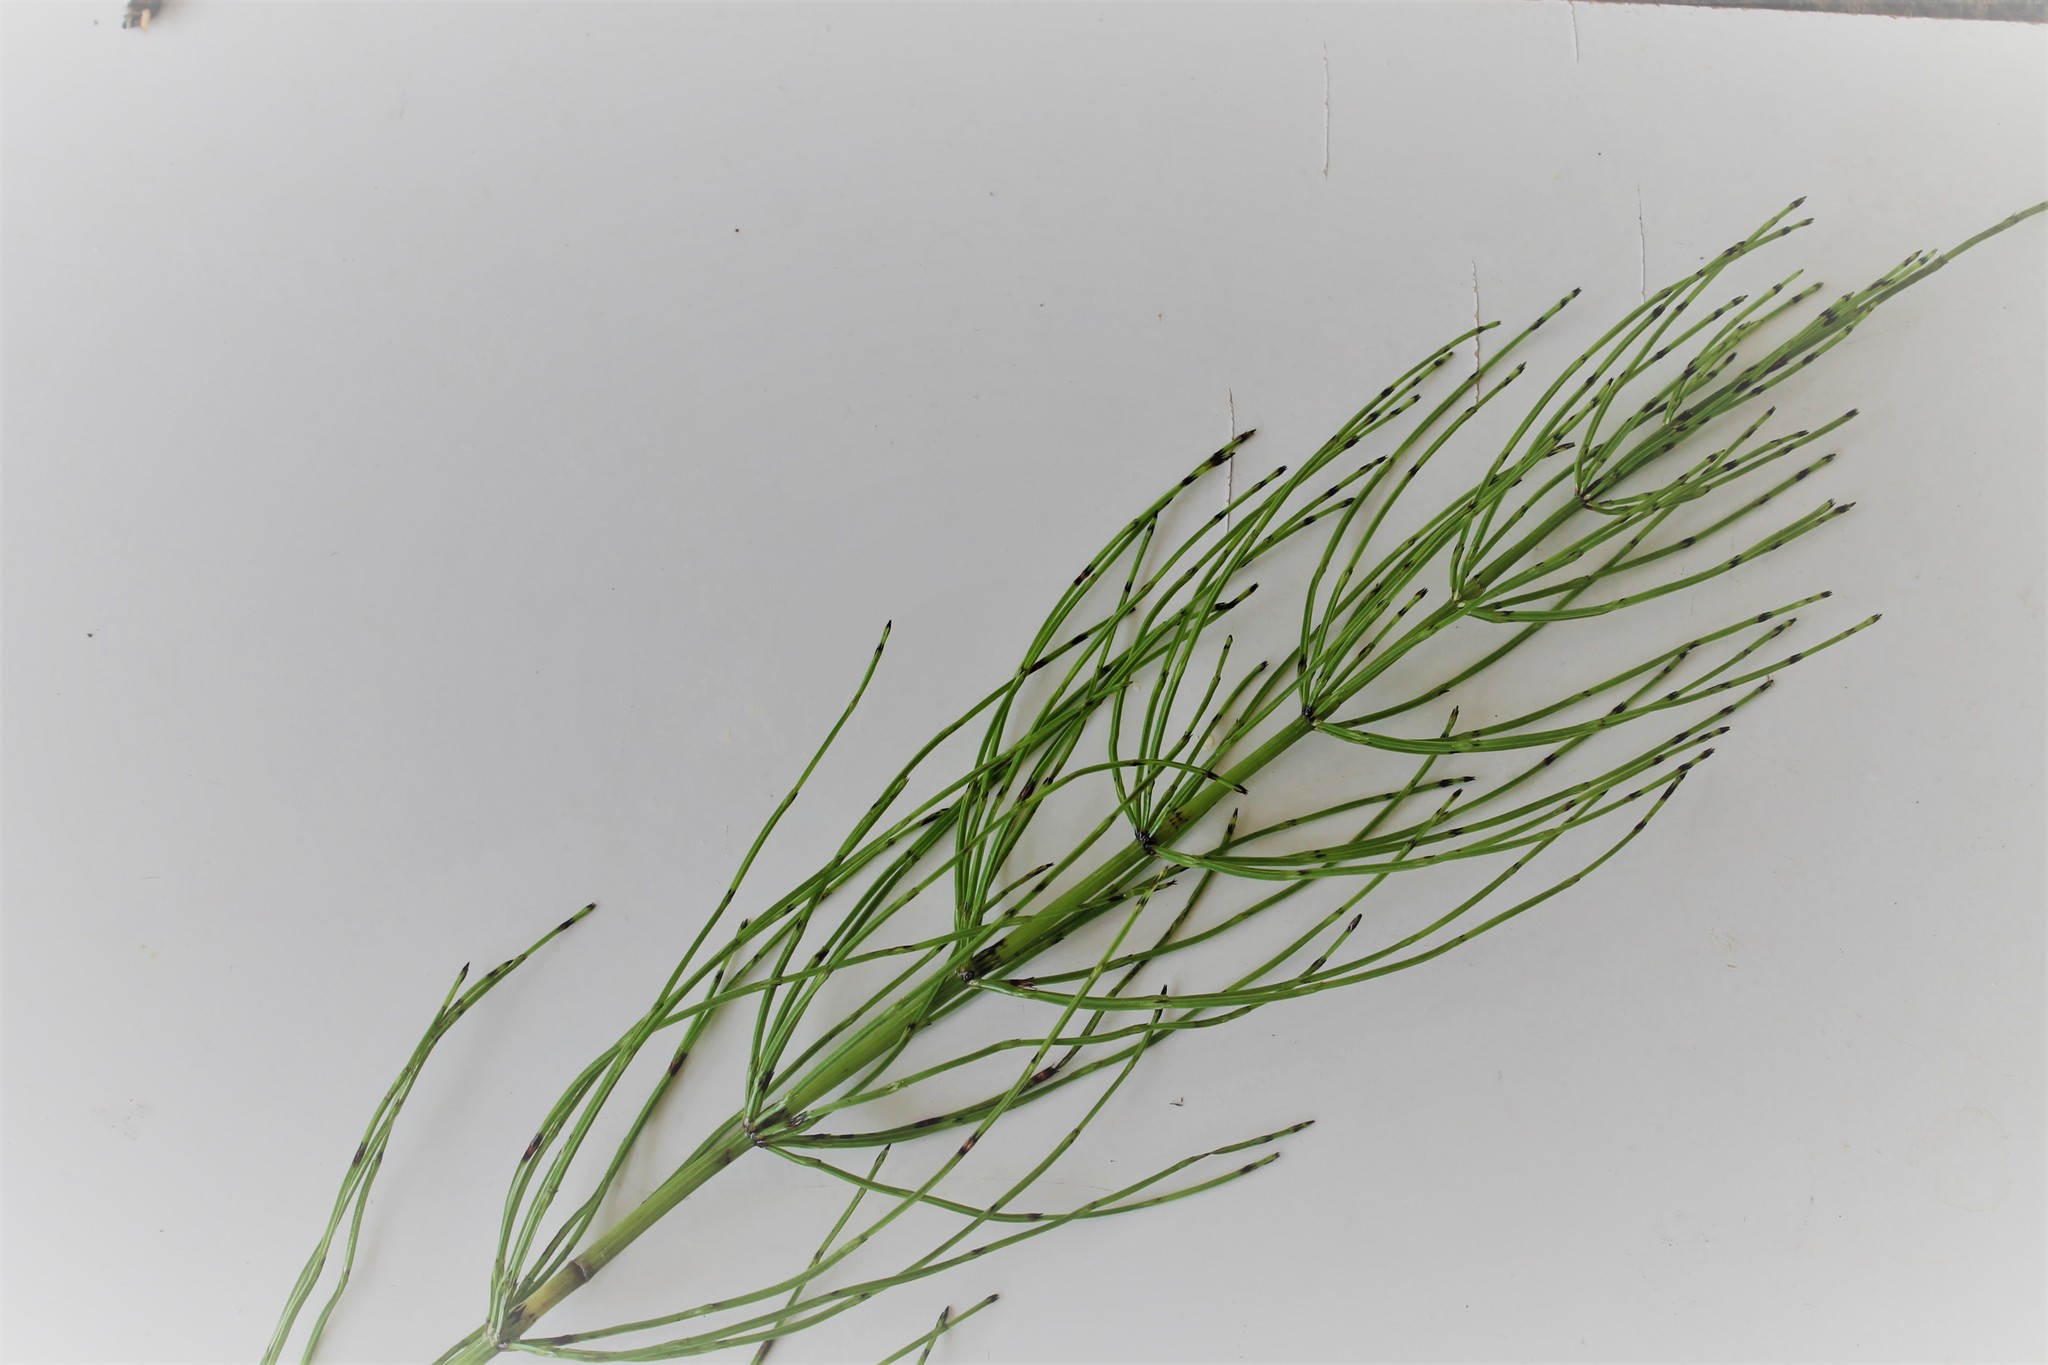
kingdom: Plantae
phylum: Tracheophyta
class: Polypodiopsida
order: Equisetales
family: Equisetaceae
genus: Equisetum
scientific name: Equisetum palustre
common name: Marsh horsetail
